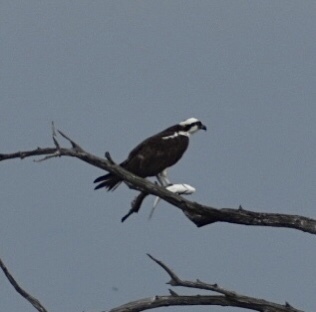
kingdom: Animalia
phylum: Chordata
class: Aves
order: Accipitriformes
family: Pandionidae
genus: Pandion
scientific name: Pandion haliaetus
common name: Osprey
